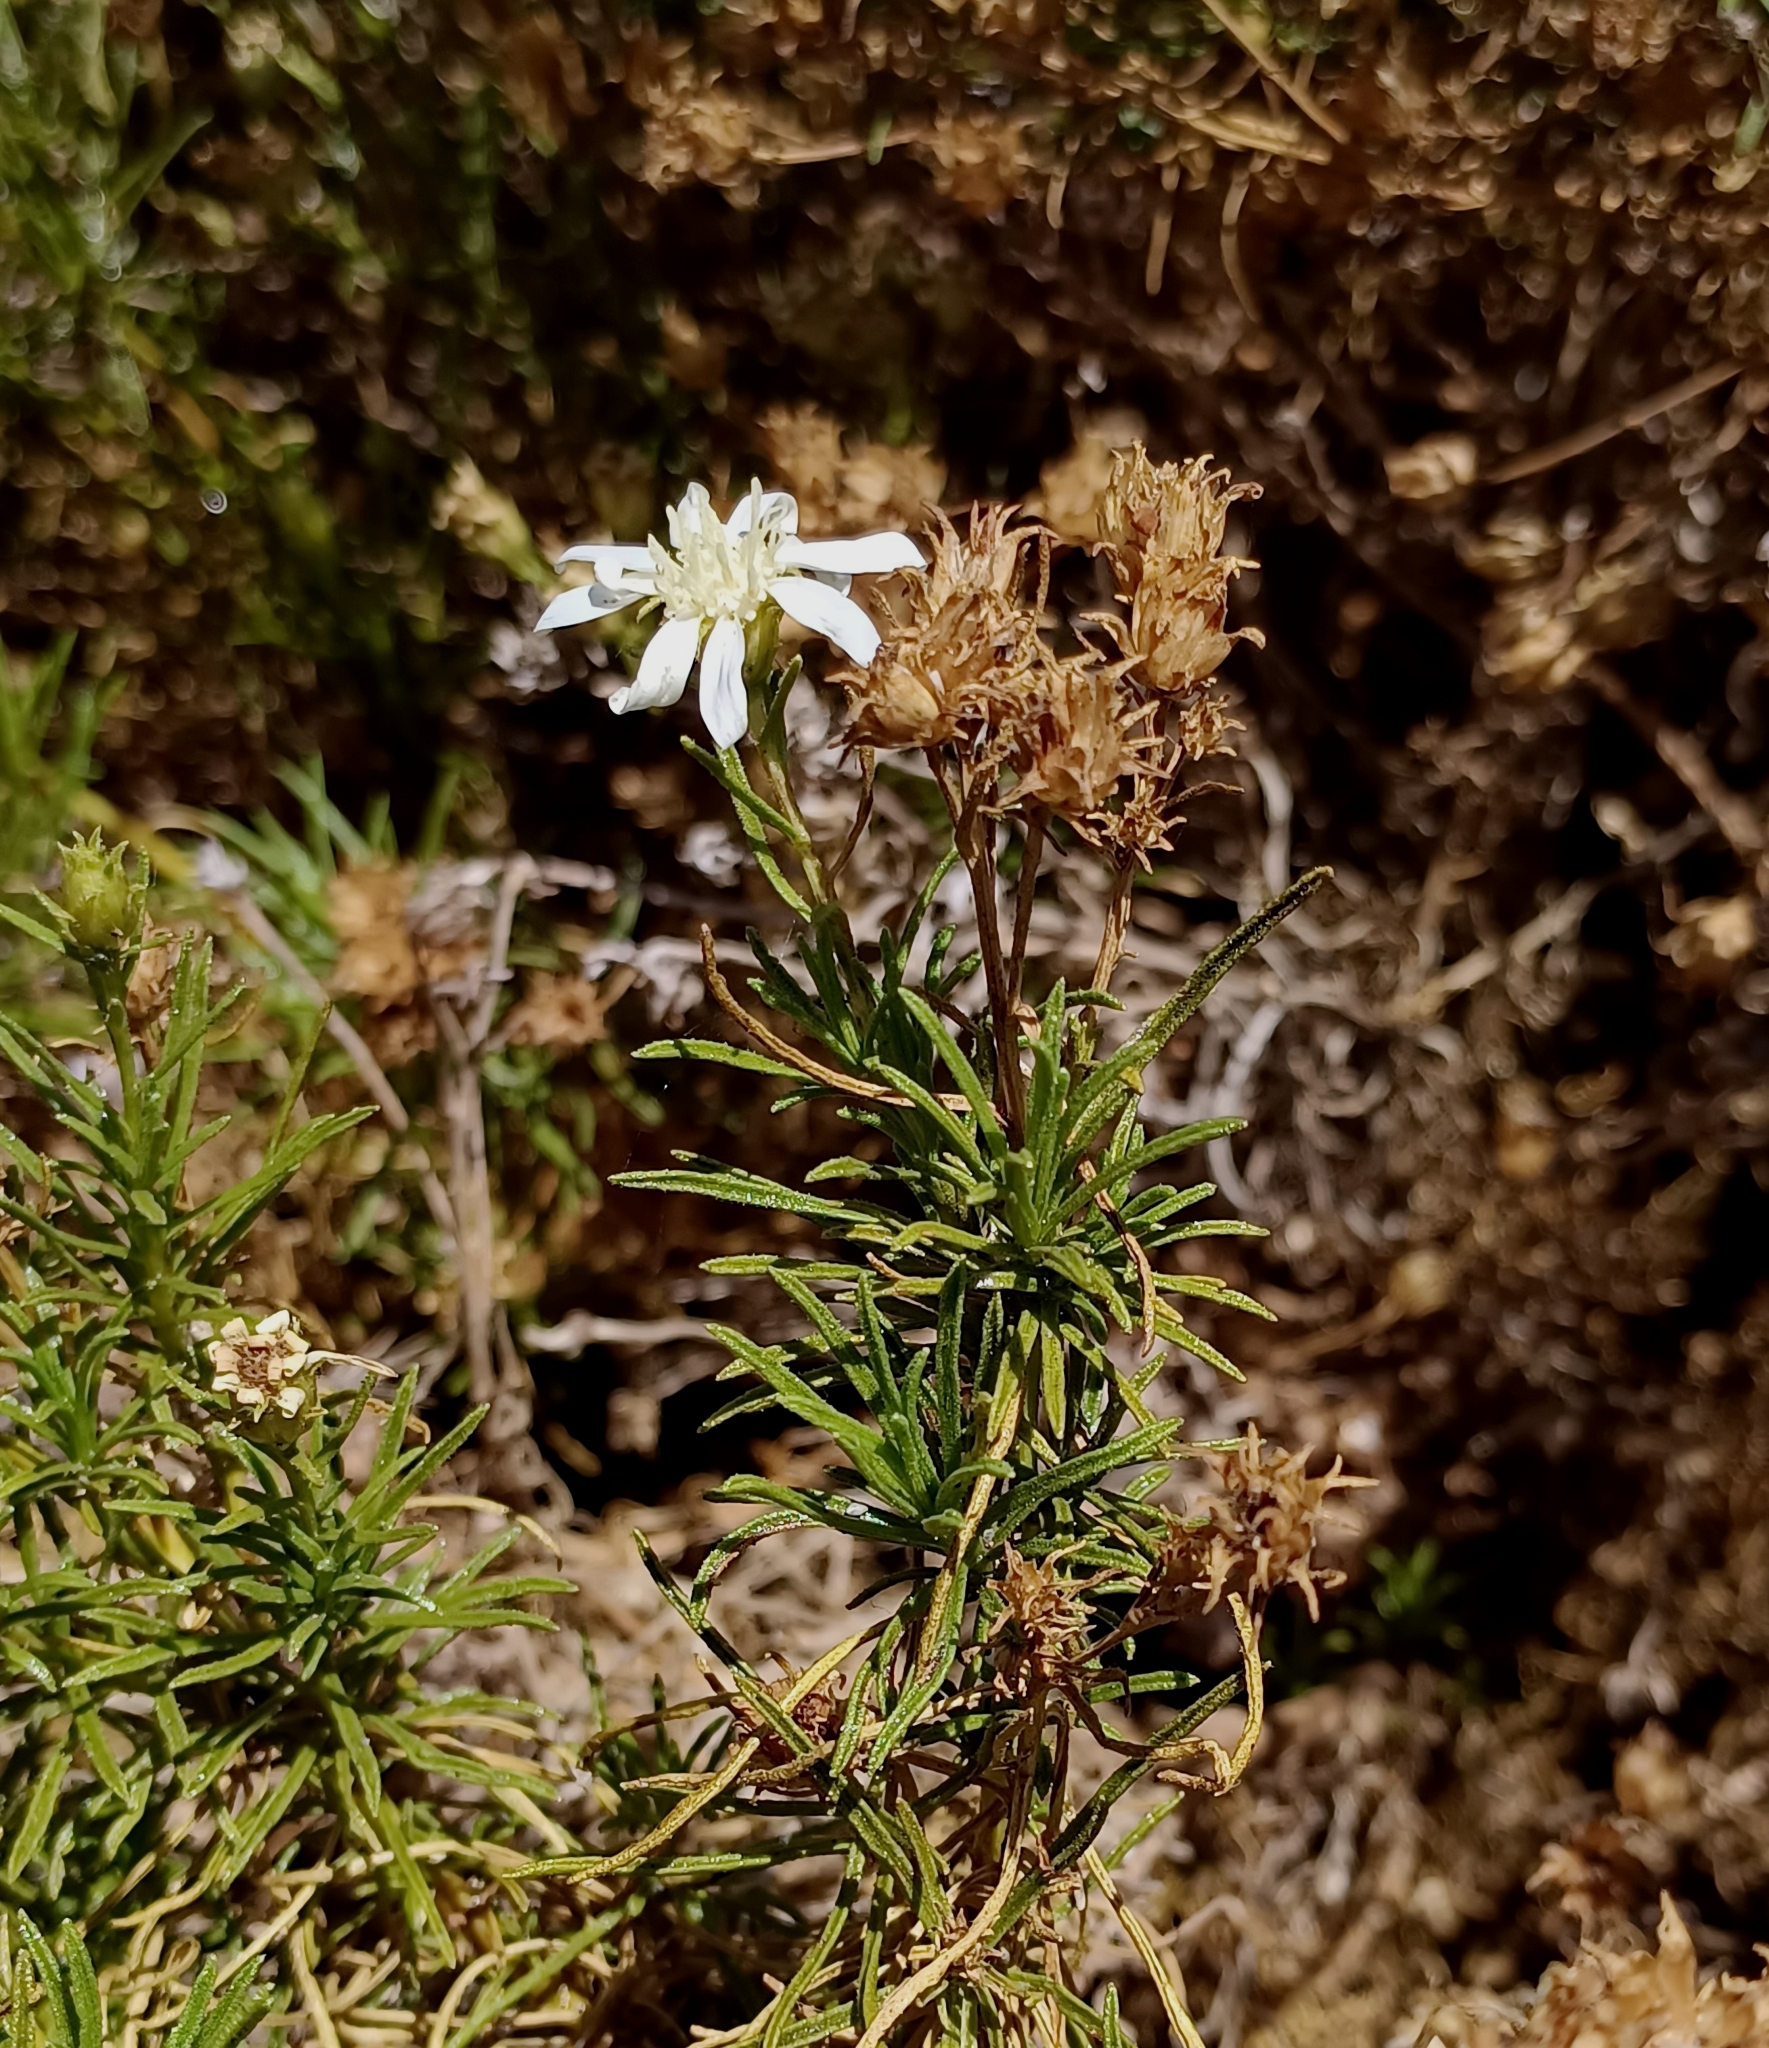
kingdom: Plantae
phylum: Tracheophyta
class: Magnoliopsida
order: Asterales
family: Asteraceae
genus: Gutierrezia
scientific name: Gutierrezia gayana
